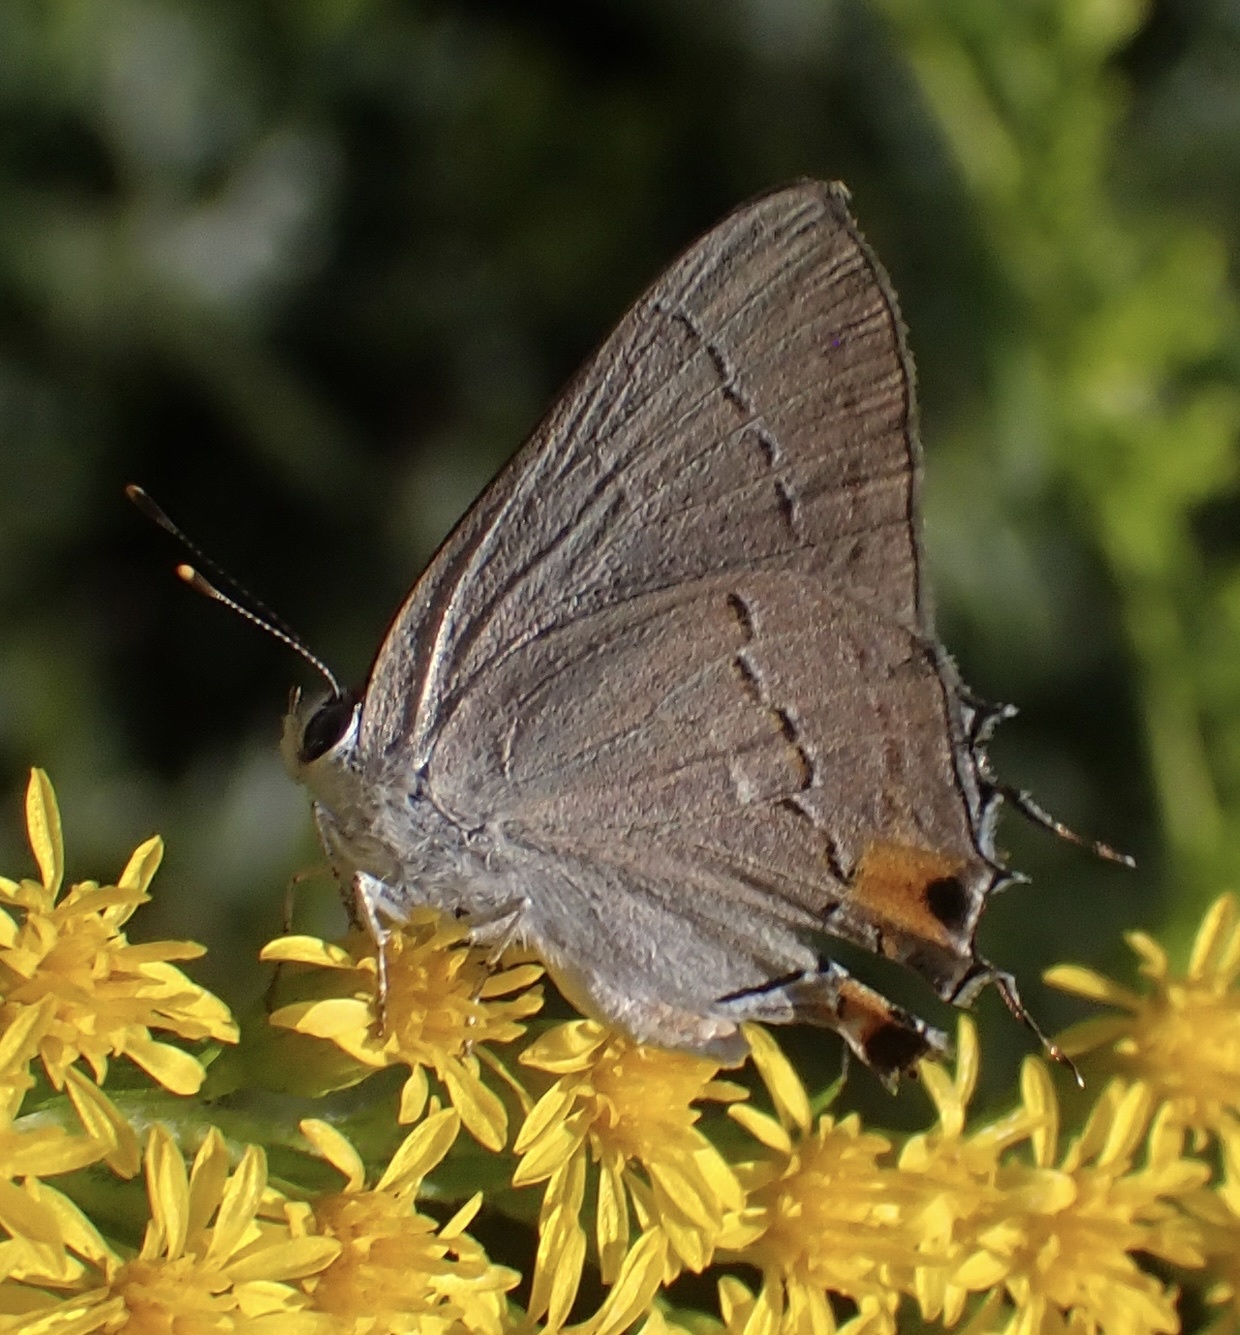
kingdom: Animalia
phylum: Arthropoda
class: Insecta
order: Lepidoptera
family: Lycaenidae
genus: Strymon
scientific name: Strymon melinus
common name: Gray hairstreak
